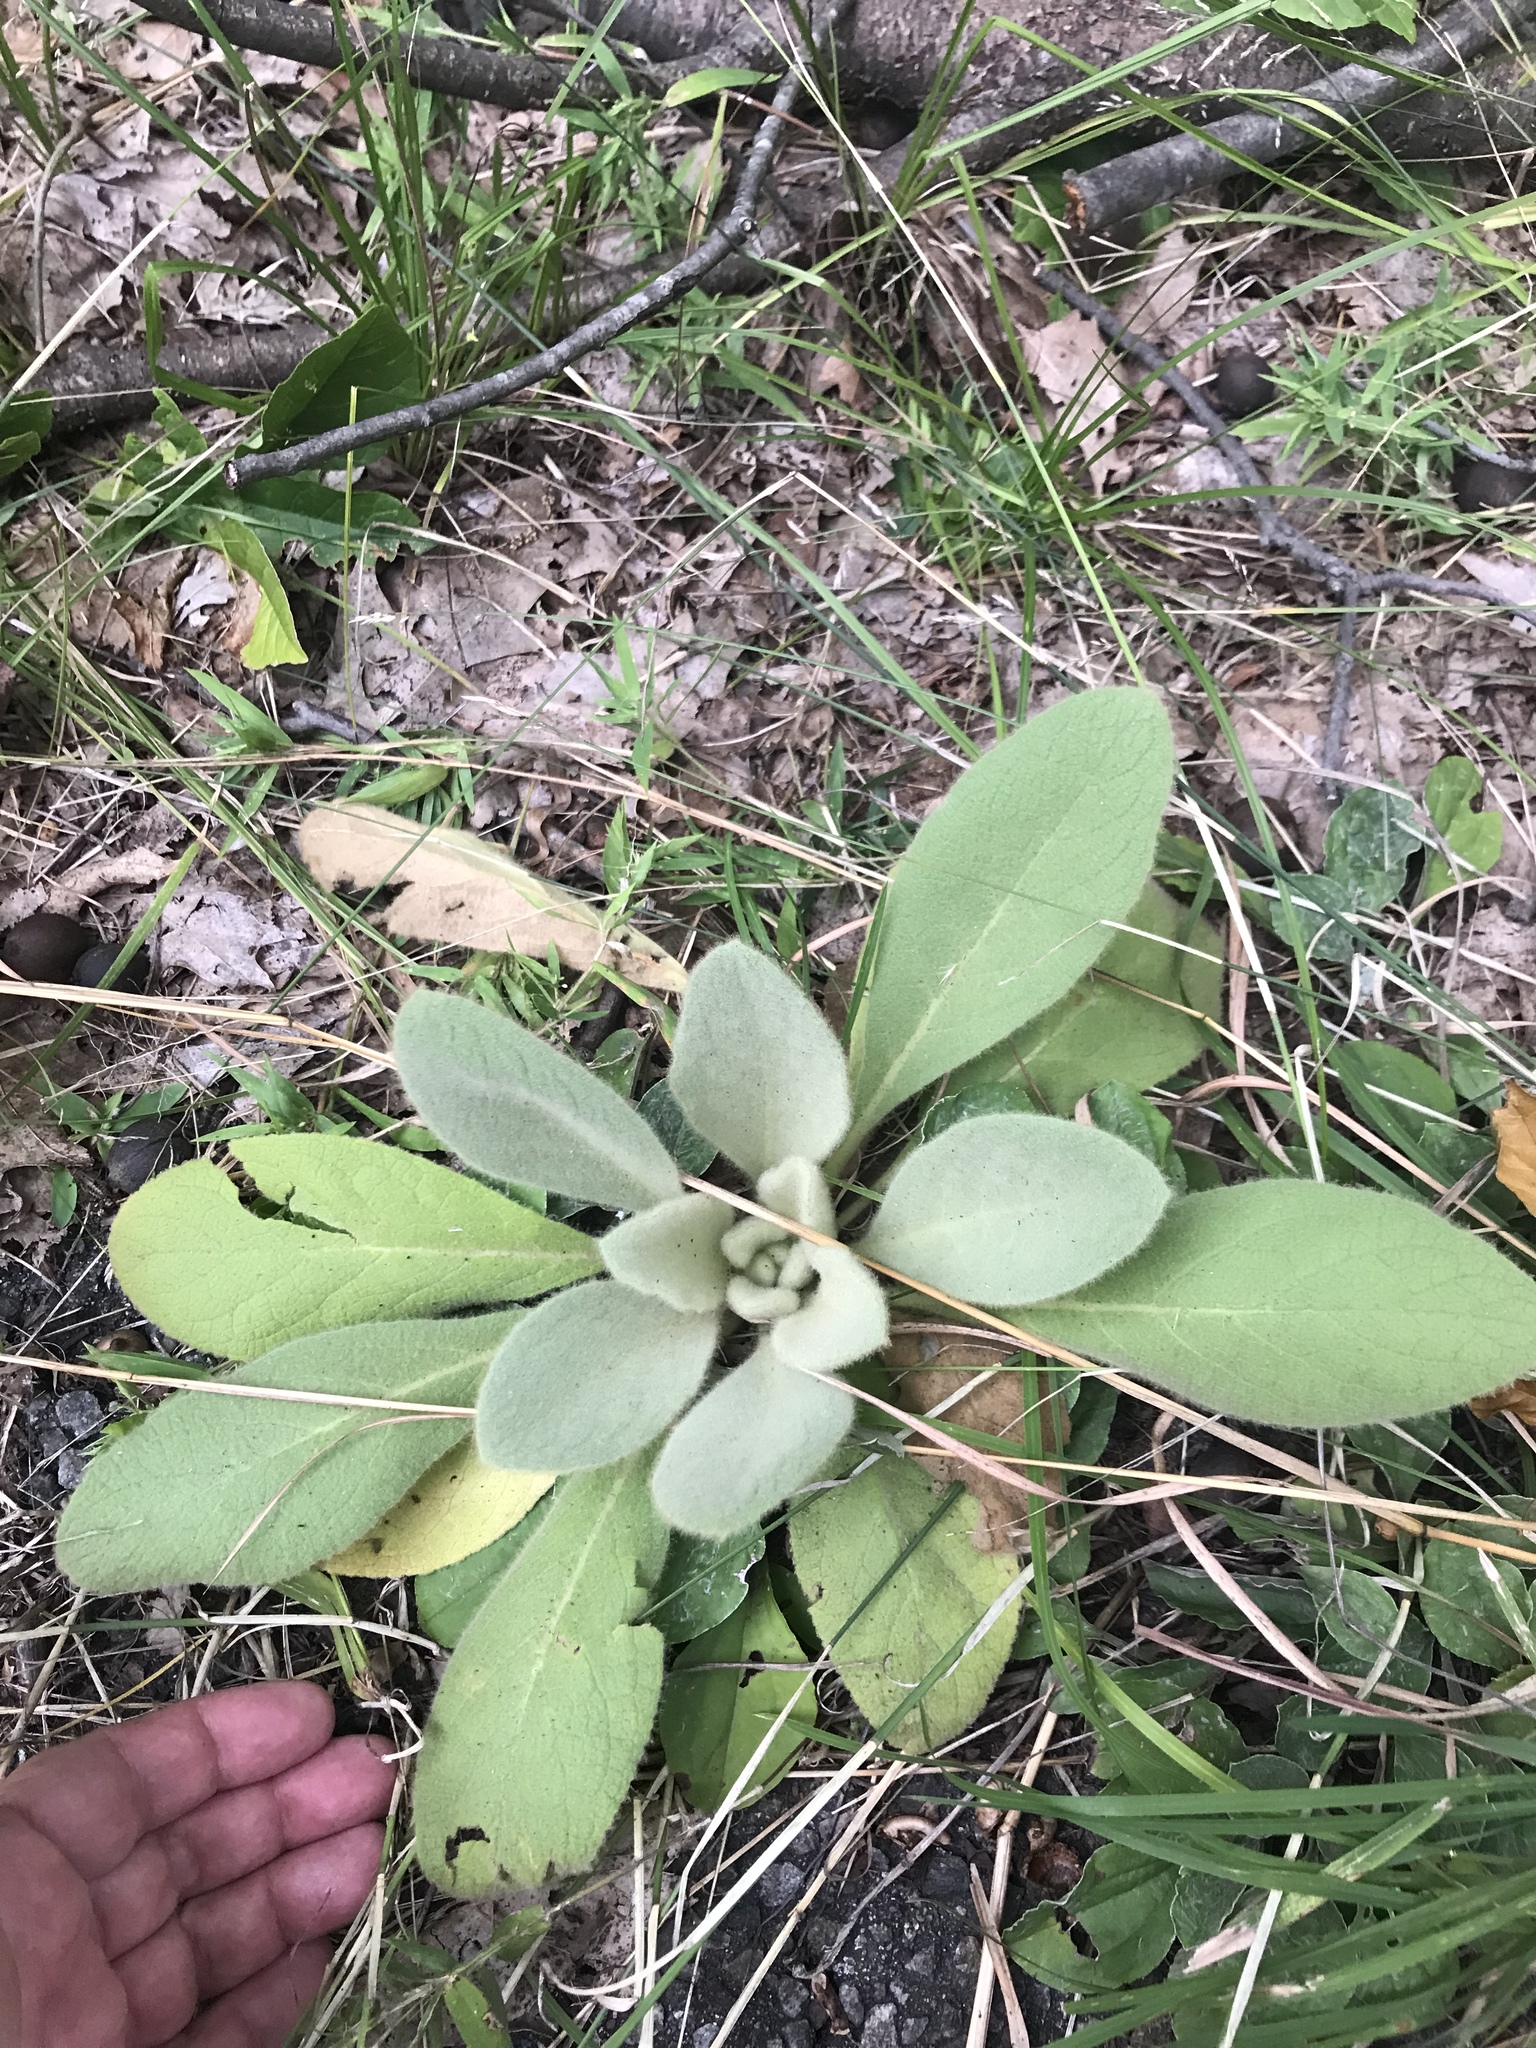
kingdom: Plantae
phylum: Tracheophyta
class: Magnoliopsida
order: Lamiales
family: Scrophulariaceae
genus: Verbascum
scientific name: Verbascum thapsus
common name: Common mullein
